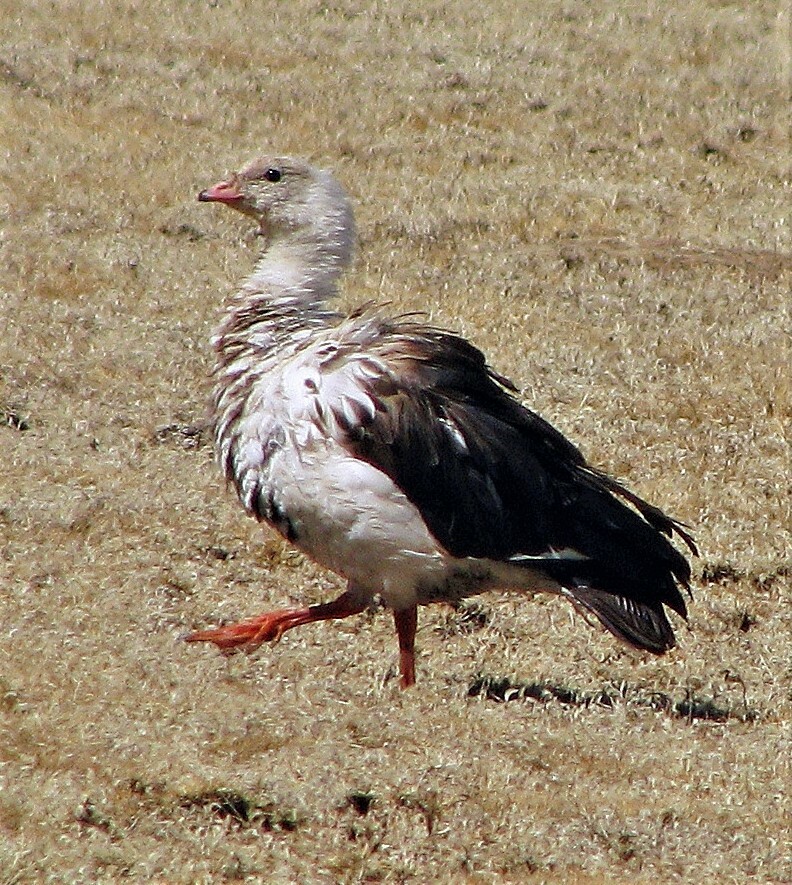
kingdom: Animalia
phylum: Chordata
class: Aves
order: Anseriformes
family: Anatidae
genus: Chloephaga
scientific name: Chloephaga melanoptera
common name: Andean goose
